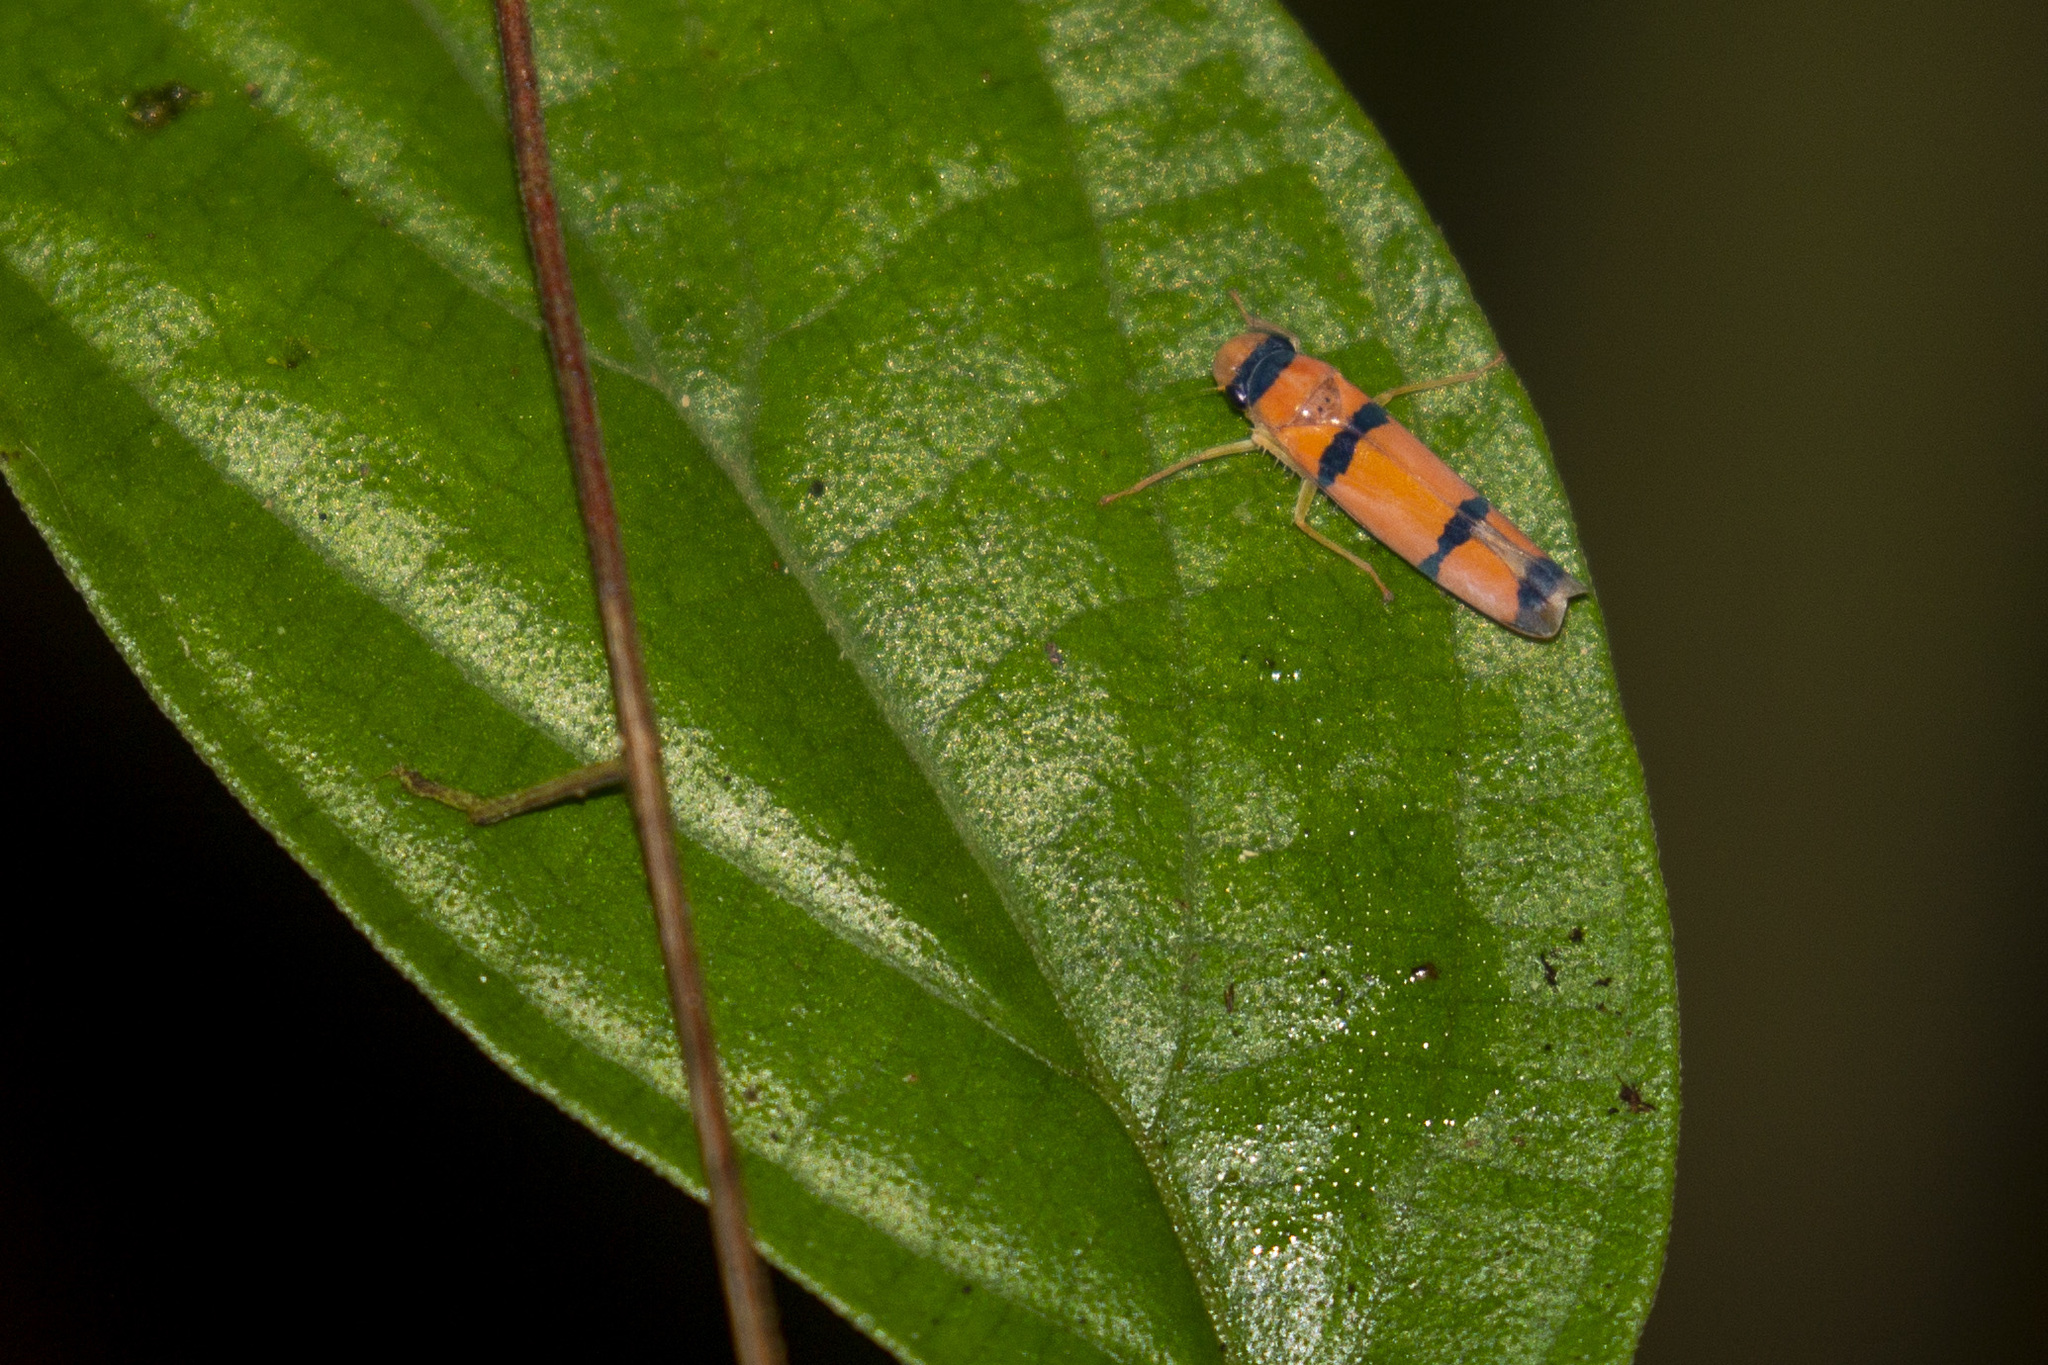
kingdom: Animalia
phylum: Arthropoda
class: Insecta
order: Hemiptera
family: Cicadellidae
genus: Cardioscarta
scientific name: Cardioscarta quadrifasciata
